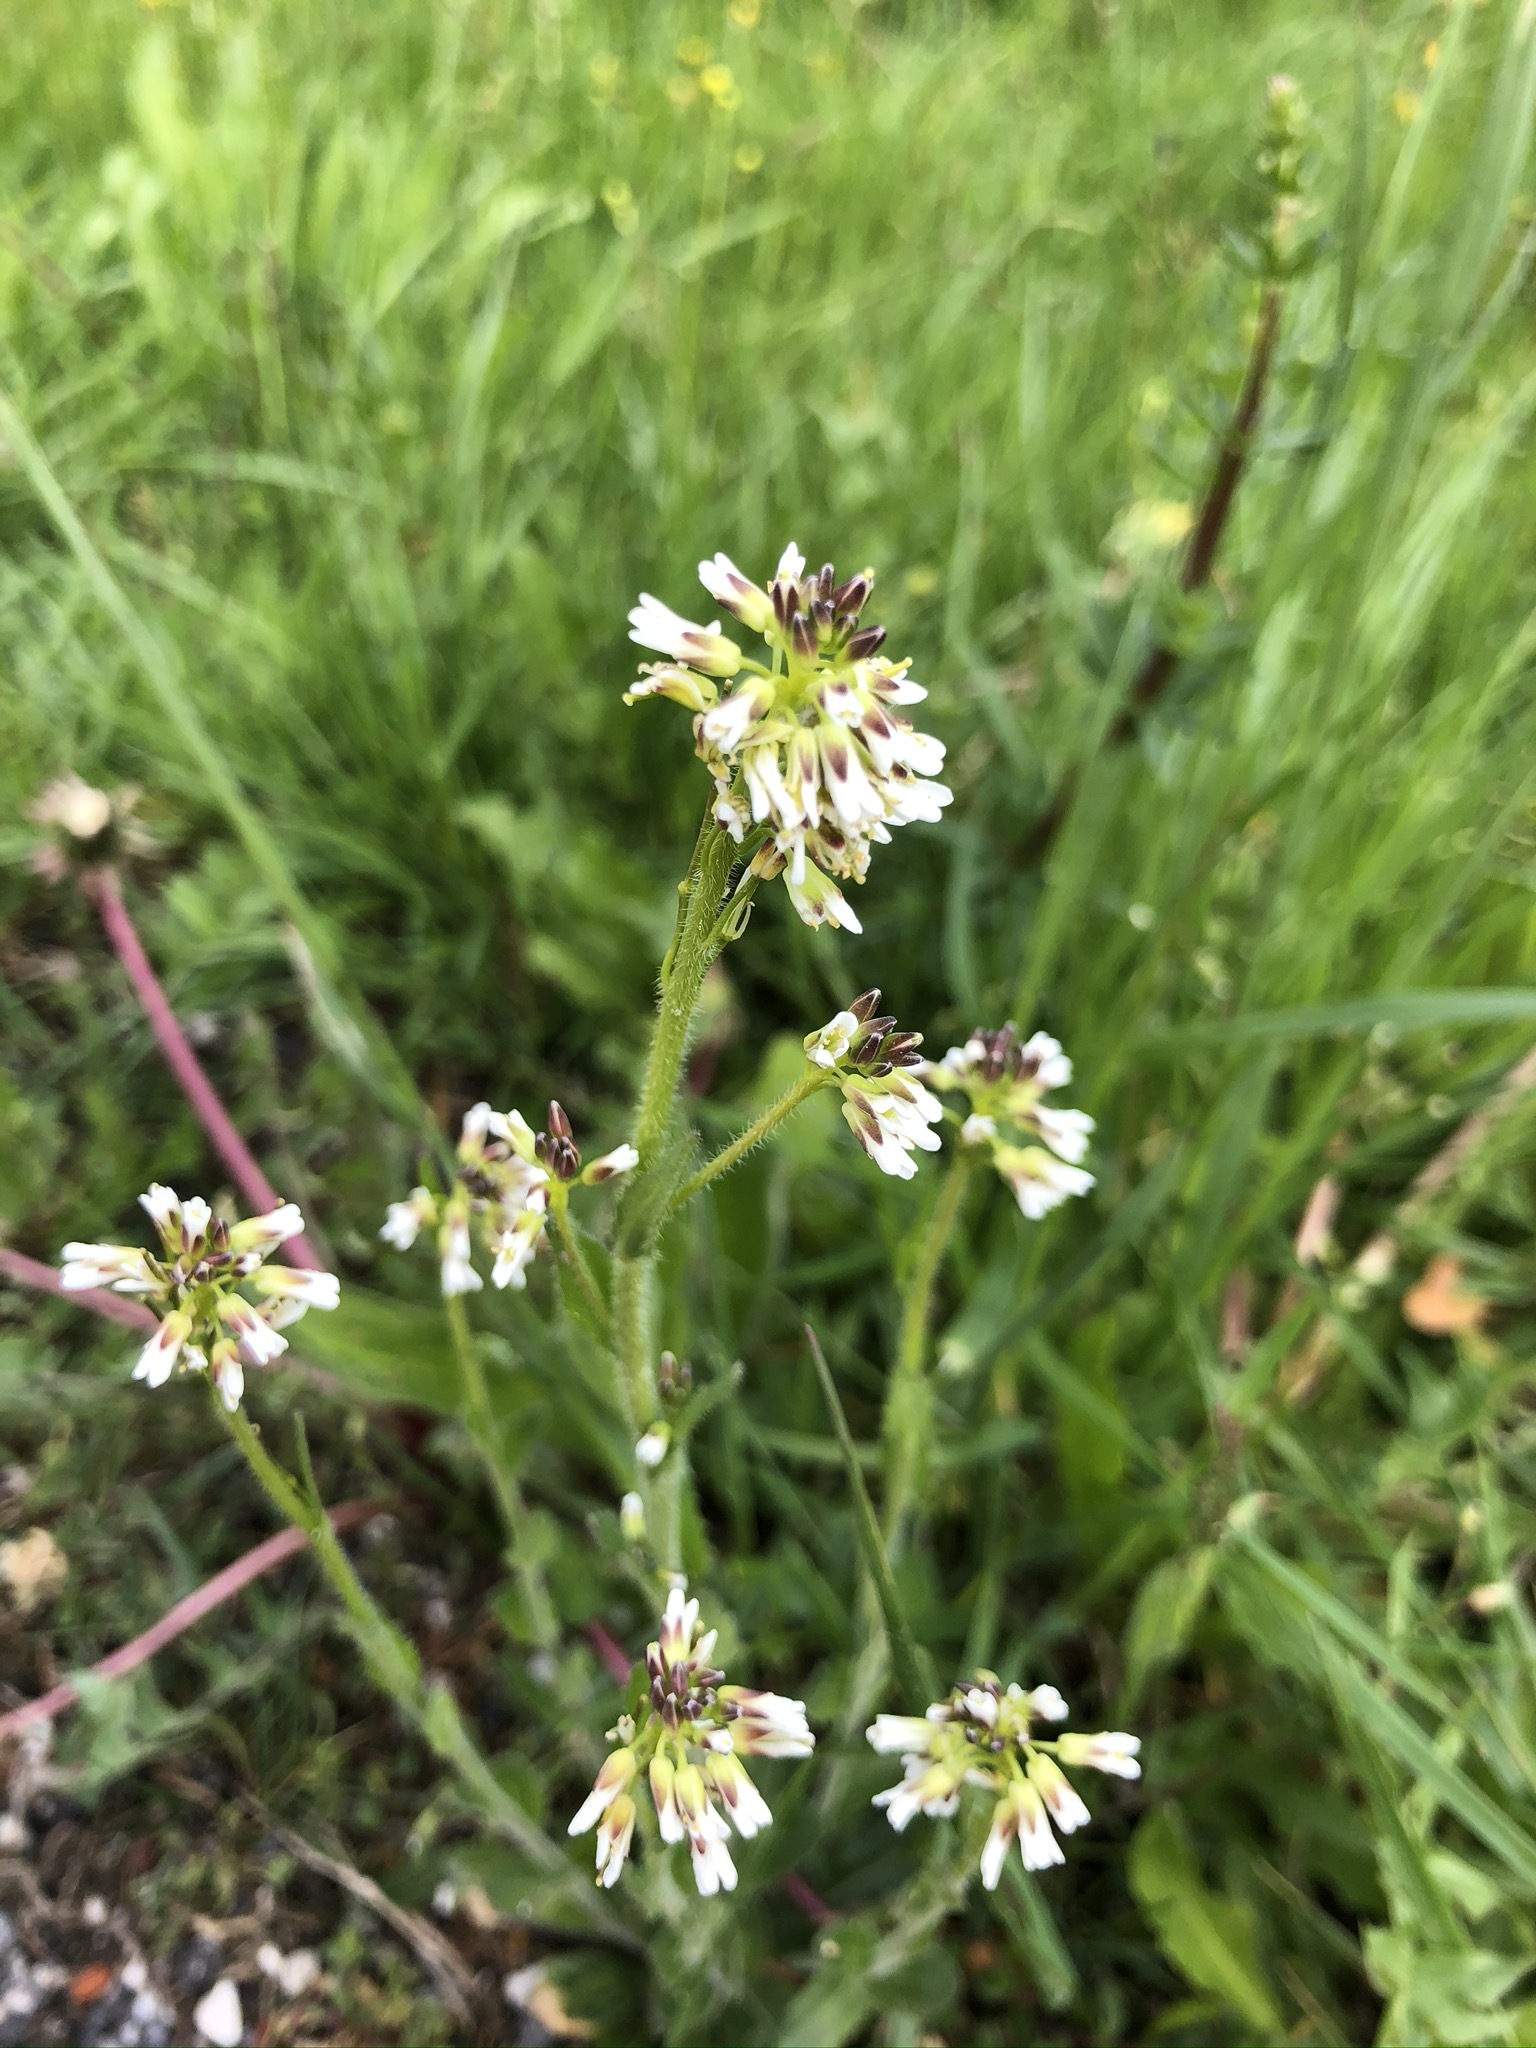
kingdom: Plantae
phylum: Tracheophyta
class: Magnoliopsida
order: Brassicales
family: Brassicaceae
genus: Arabis
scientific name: Arabis hirsuta
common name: Hairy rock-cress
